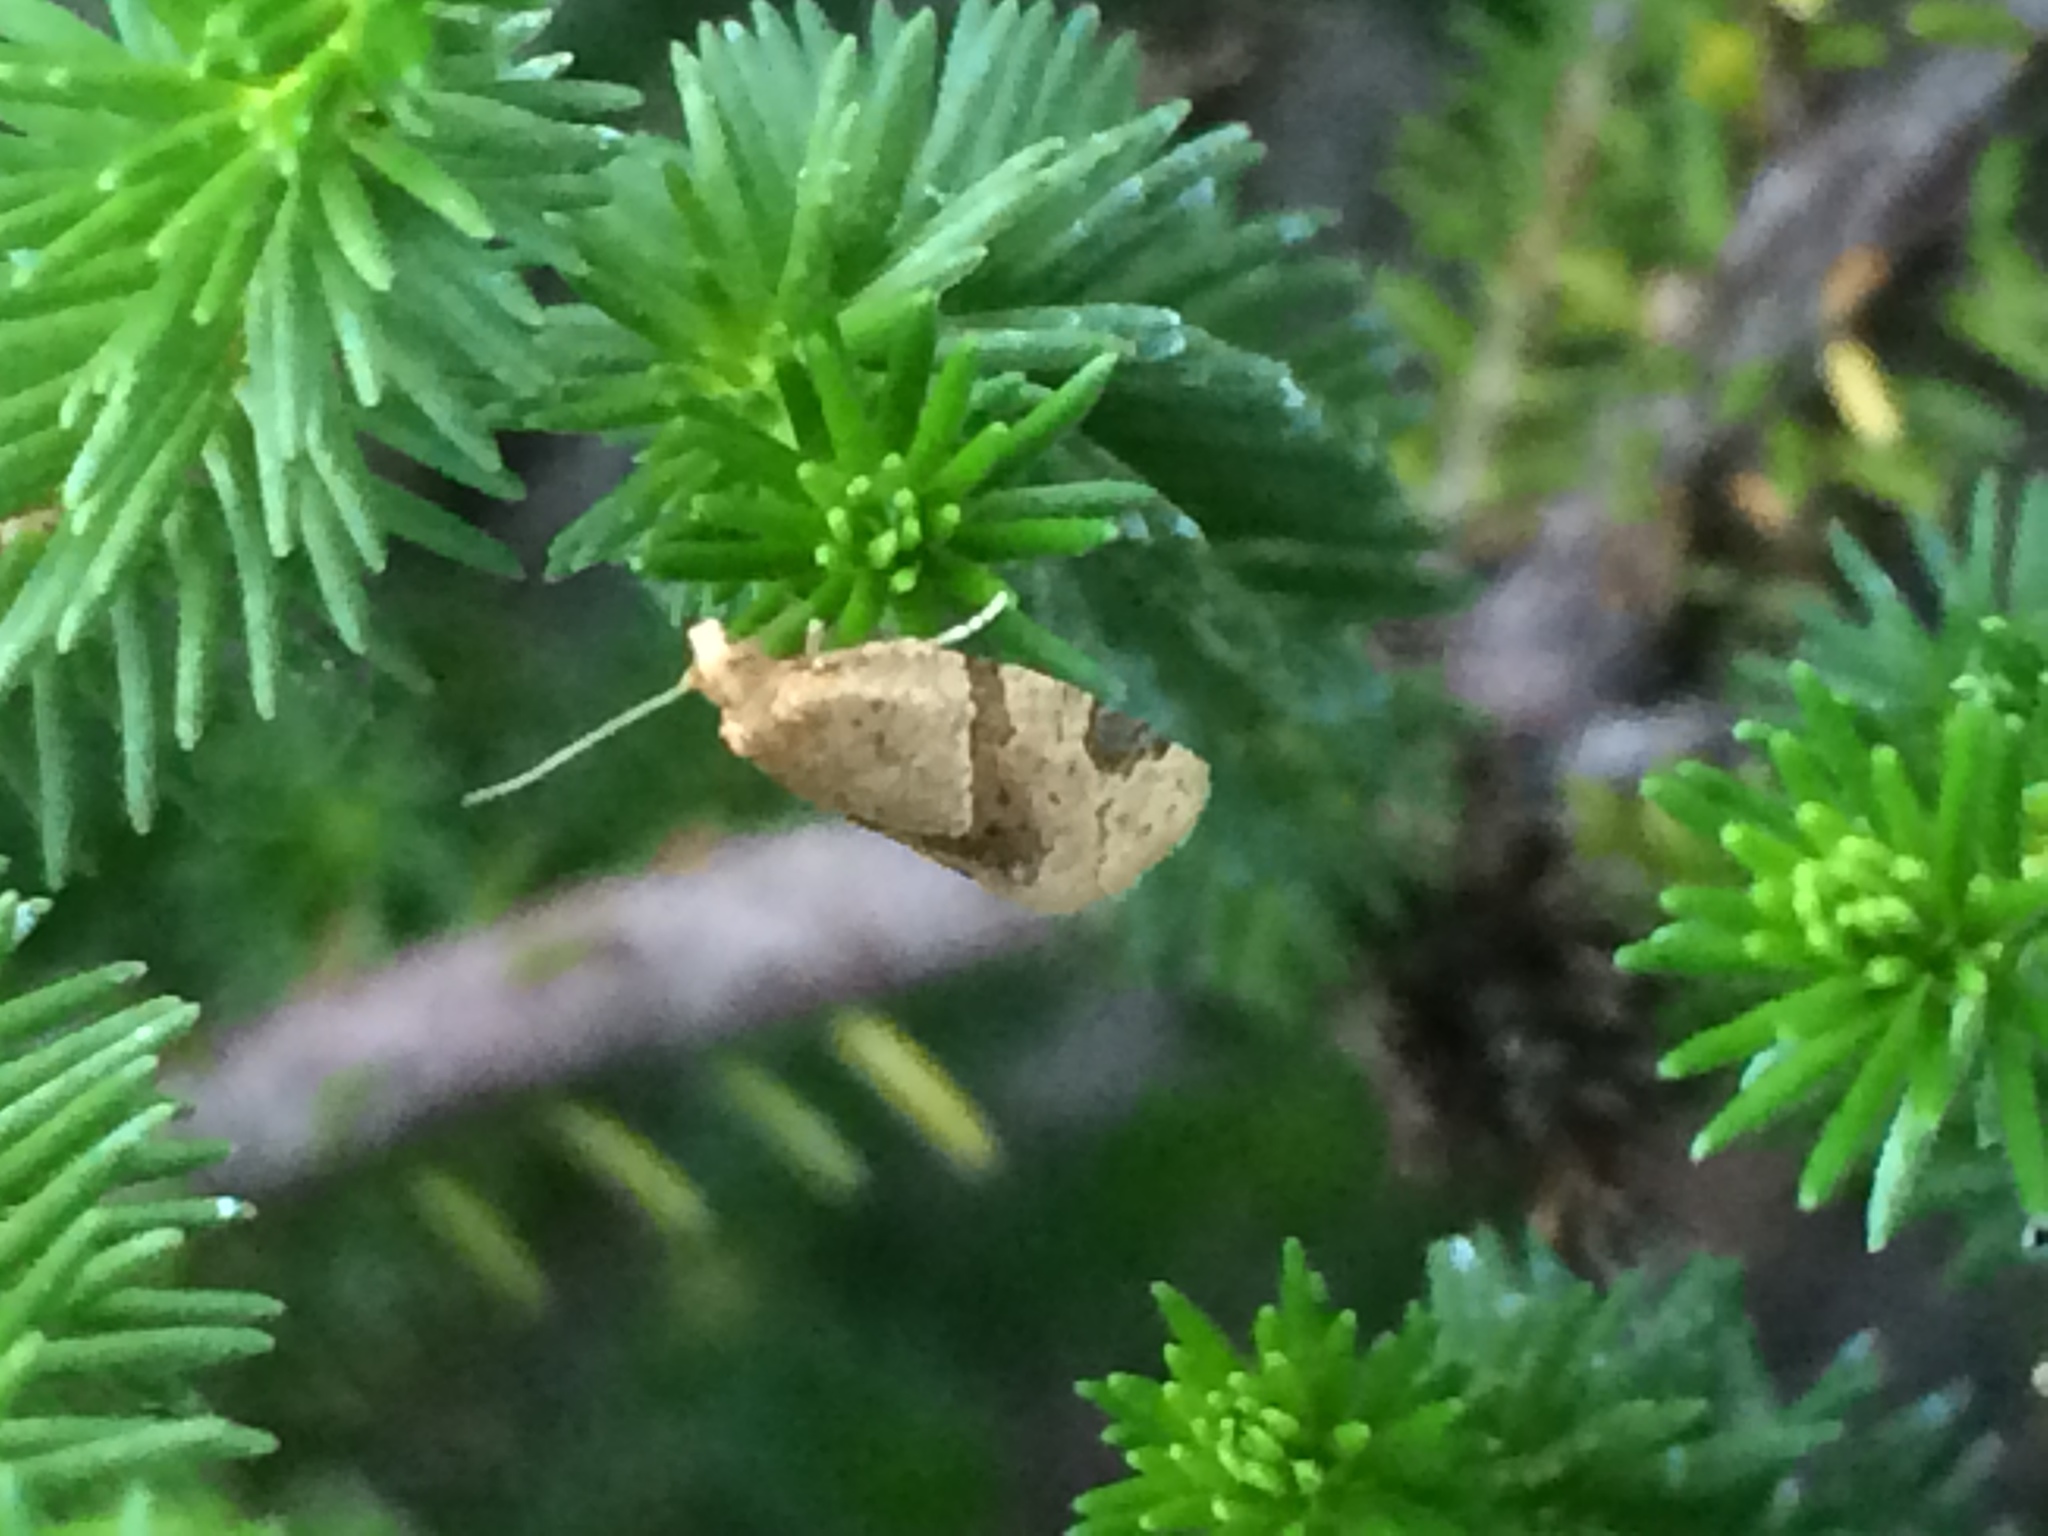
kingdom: Animalia
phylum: Arthropoda
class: Insecta
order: Lepidoptera
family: Tortricidae
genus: Clepsis
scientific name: Clepsis peritana
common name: Garden tortrix
